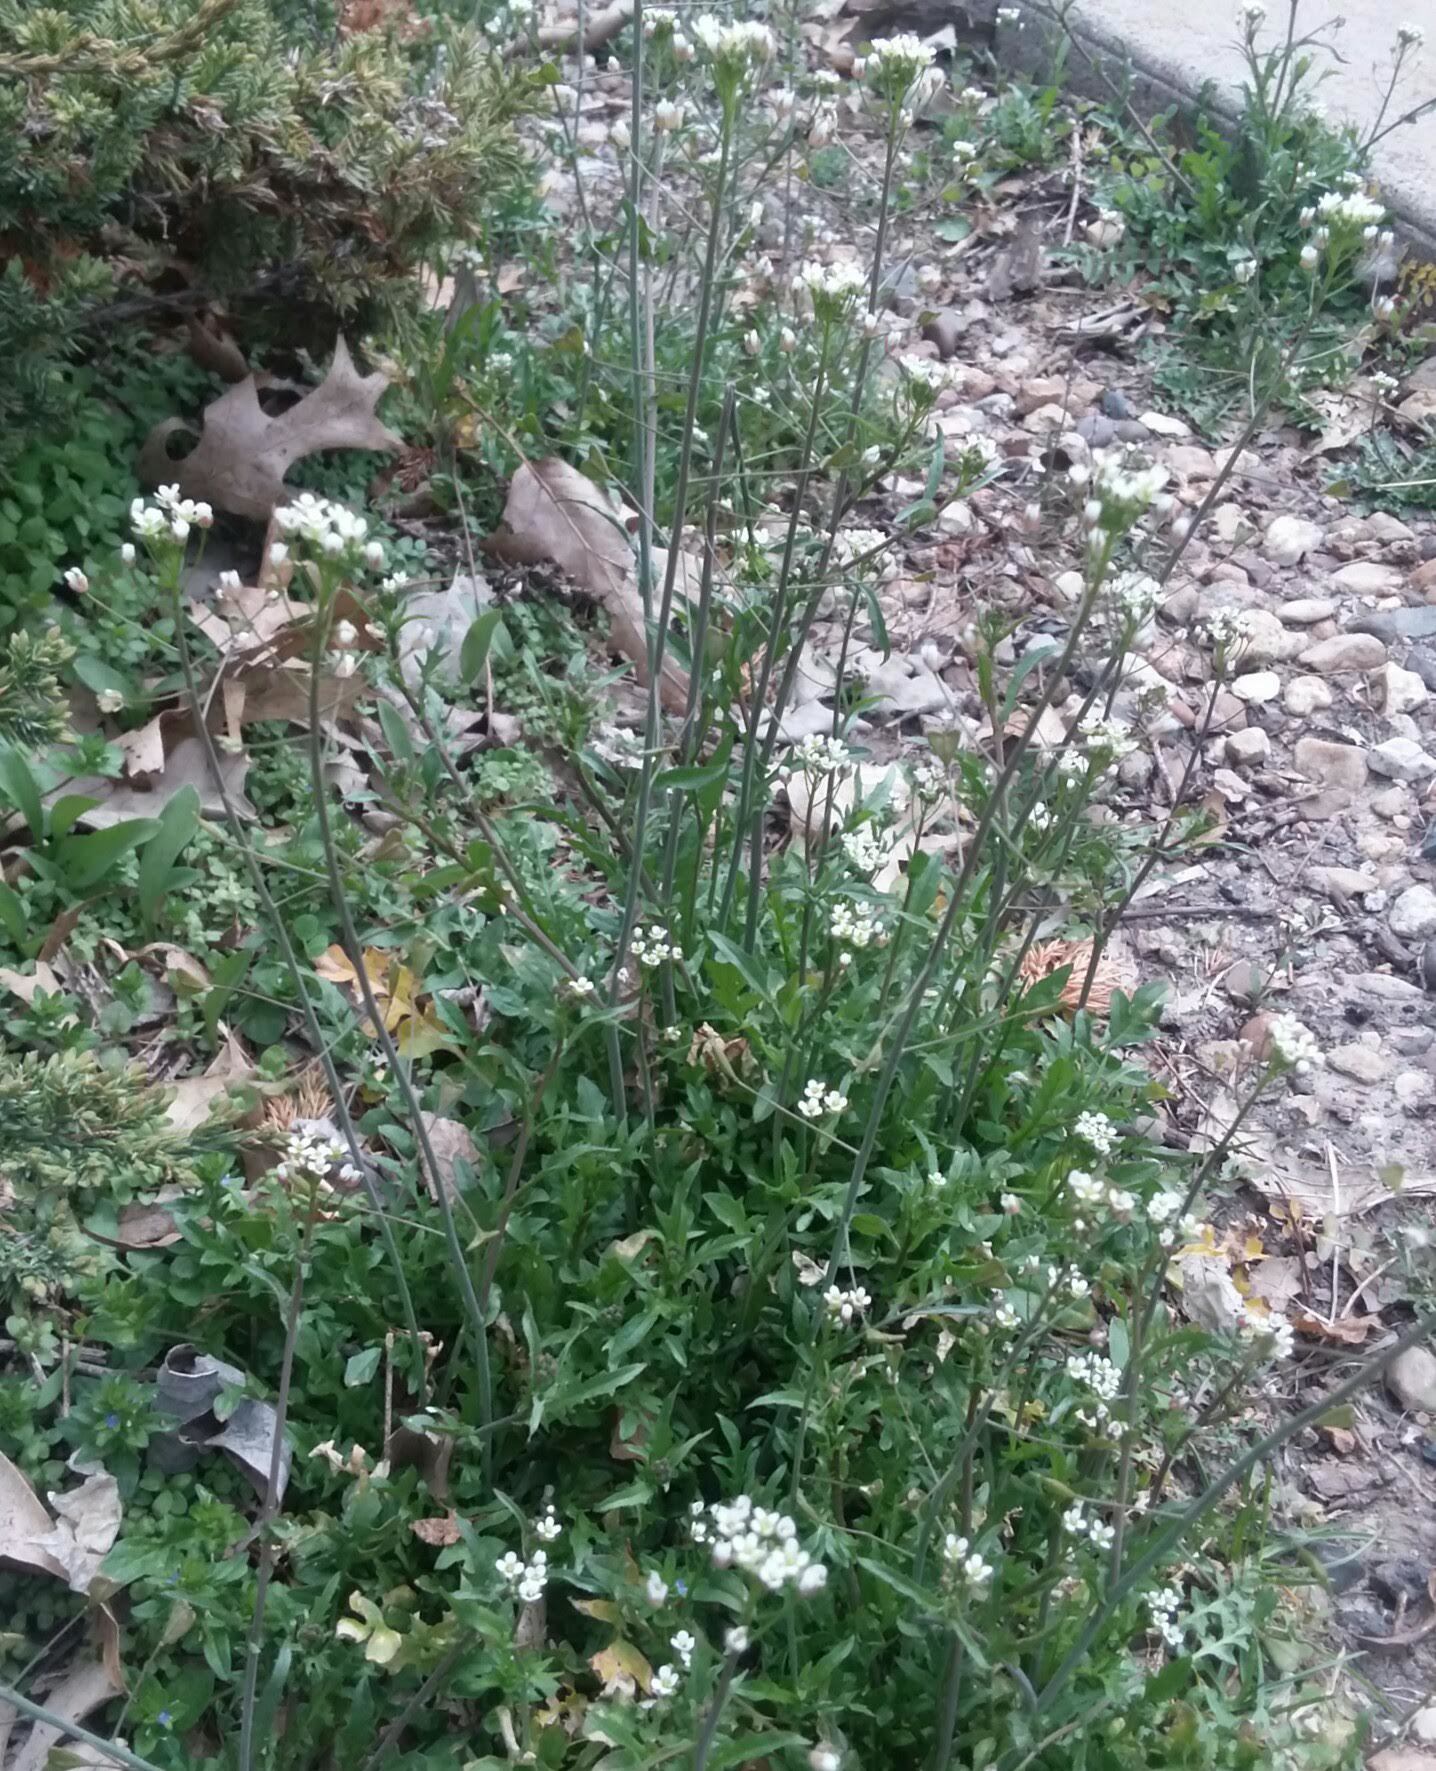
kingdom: Plantae
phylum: Tracheophyta
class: Magnoliopsida
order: Brassicales
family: Brassicaceae
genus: Capsella
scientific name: Capsella bursa-pastoris
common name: Shepherd's purse
